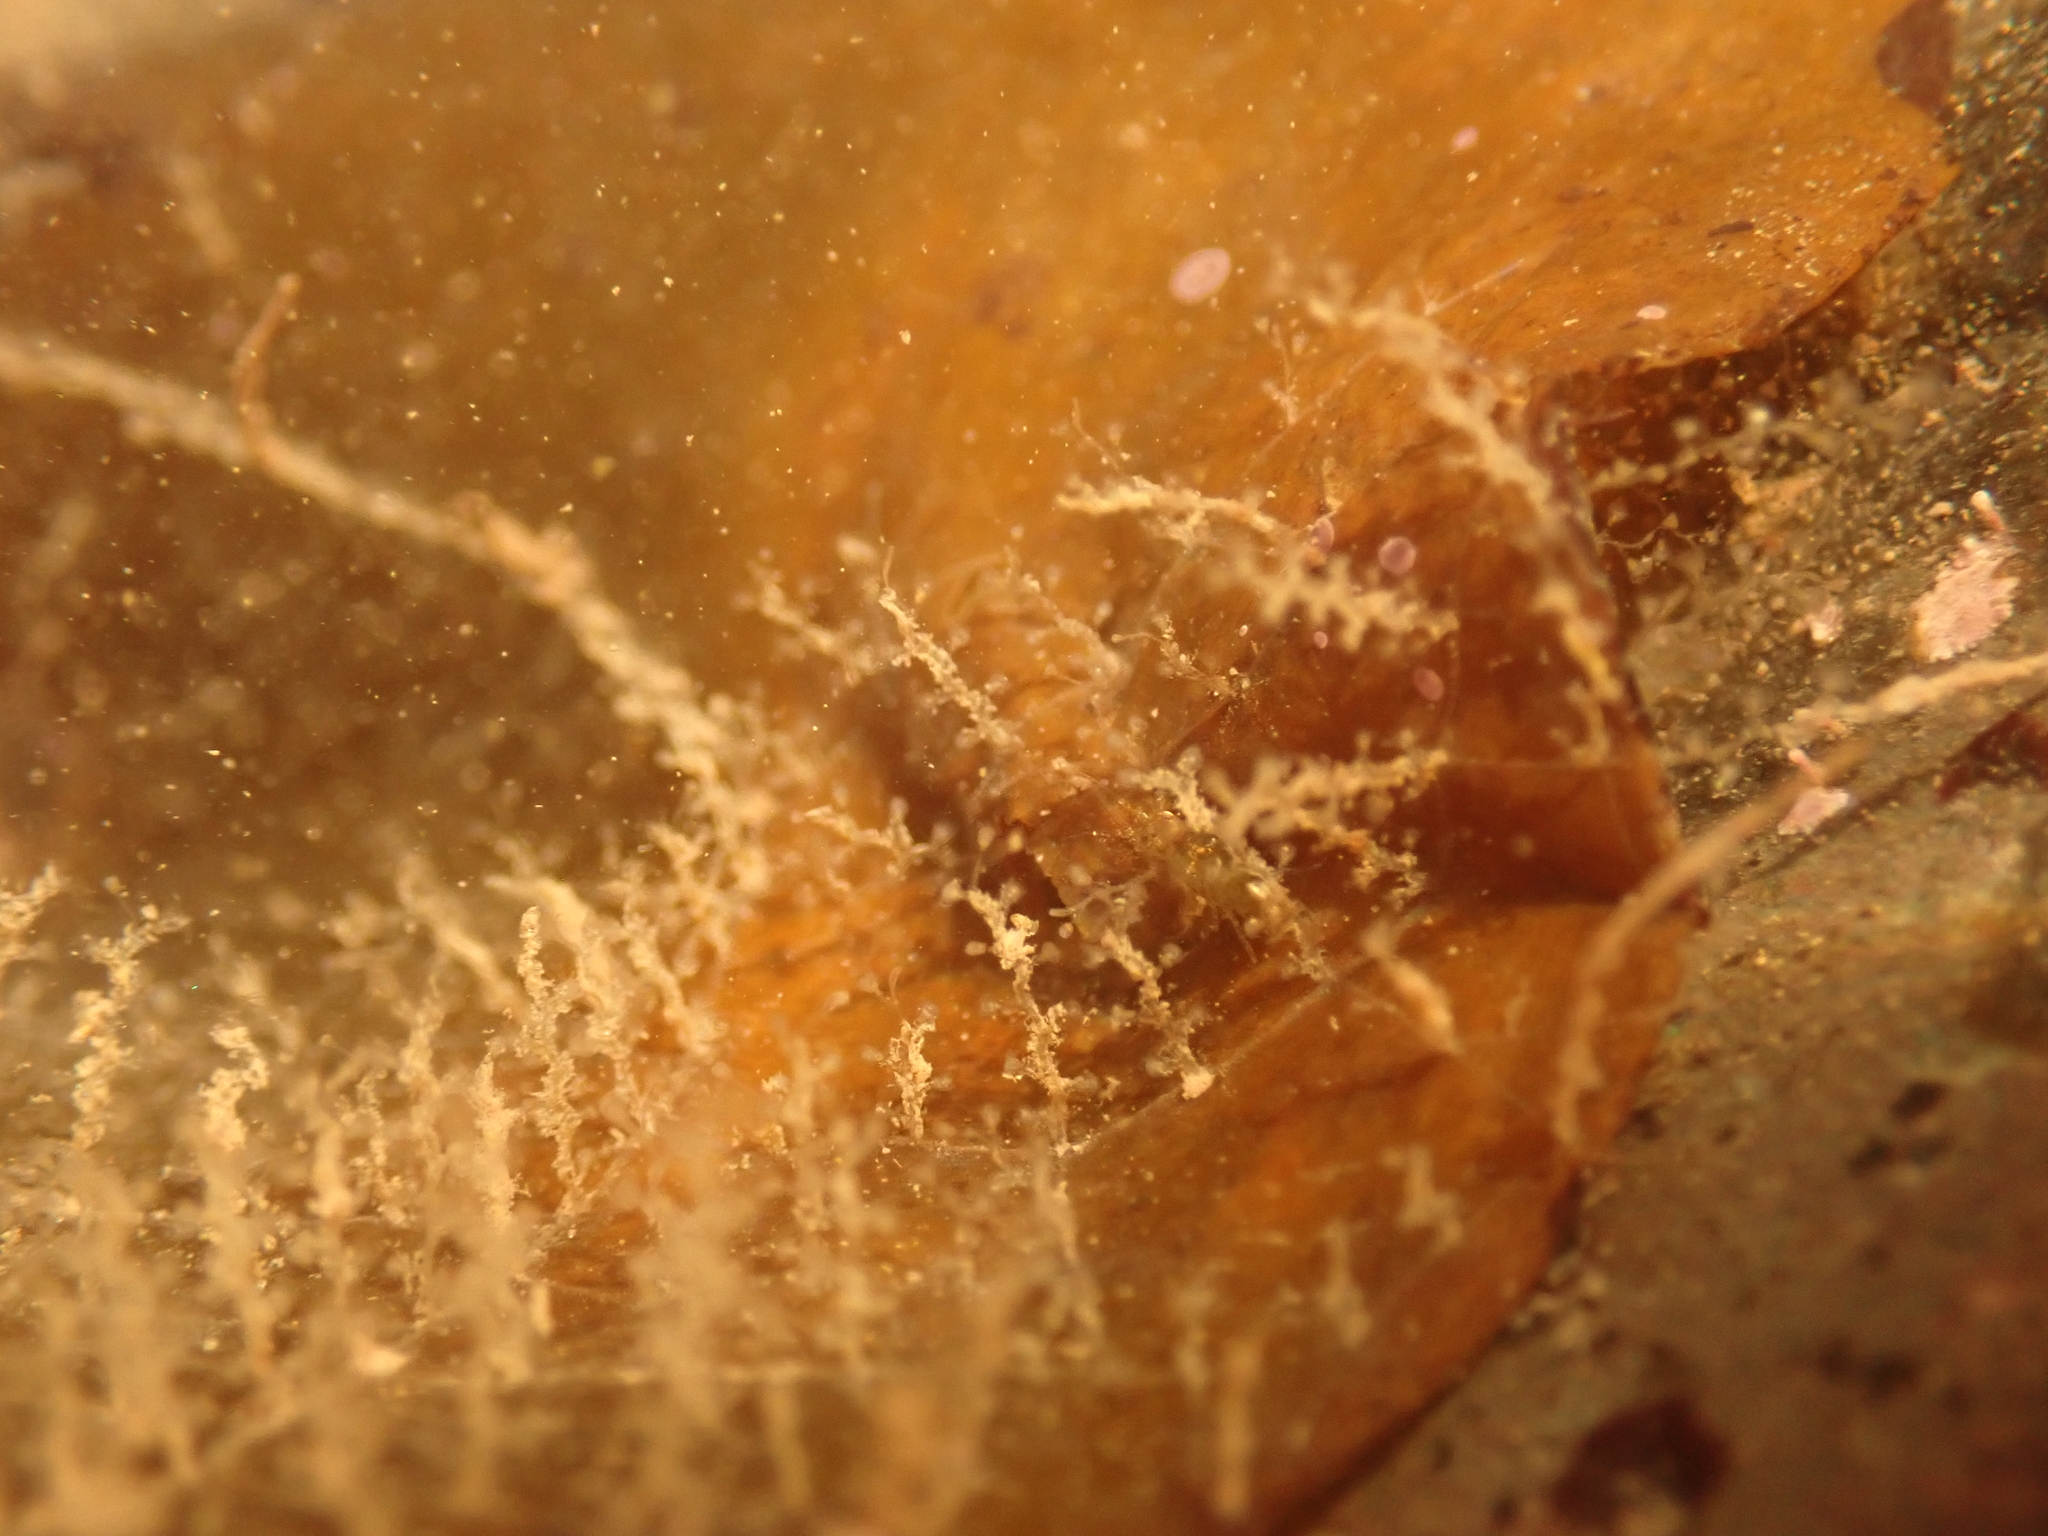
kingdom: Animalia
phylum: Cnidaria
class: Hydrozoa
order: Leptothecata
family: Campanulariidae
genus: Obelia
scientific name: Obelia geniculata
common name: Bell hydroid
